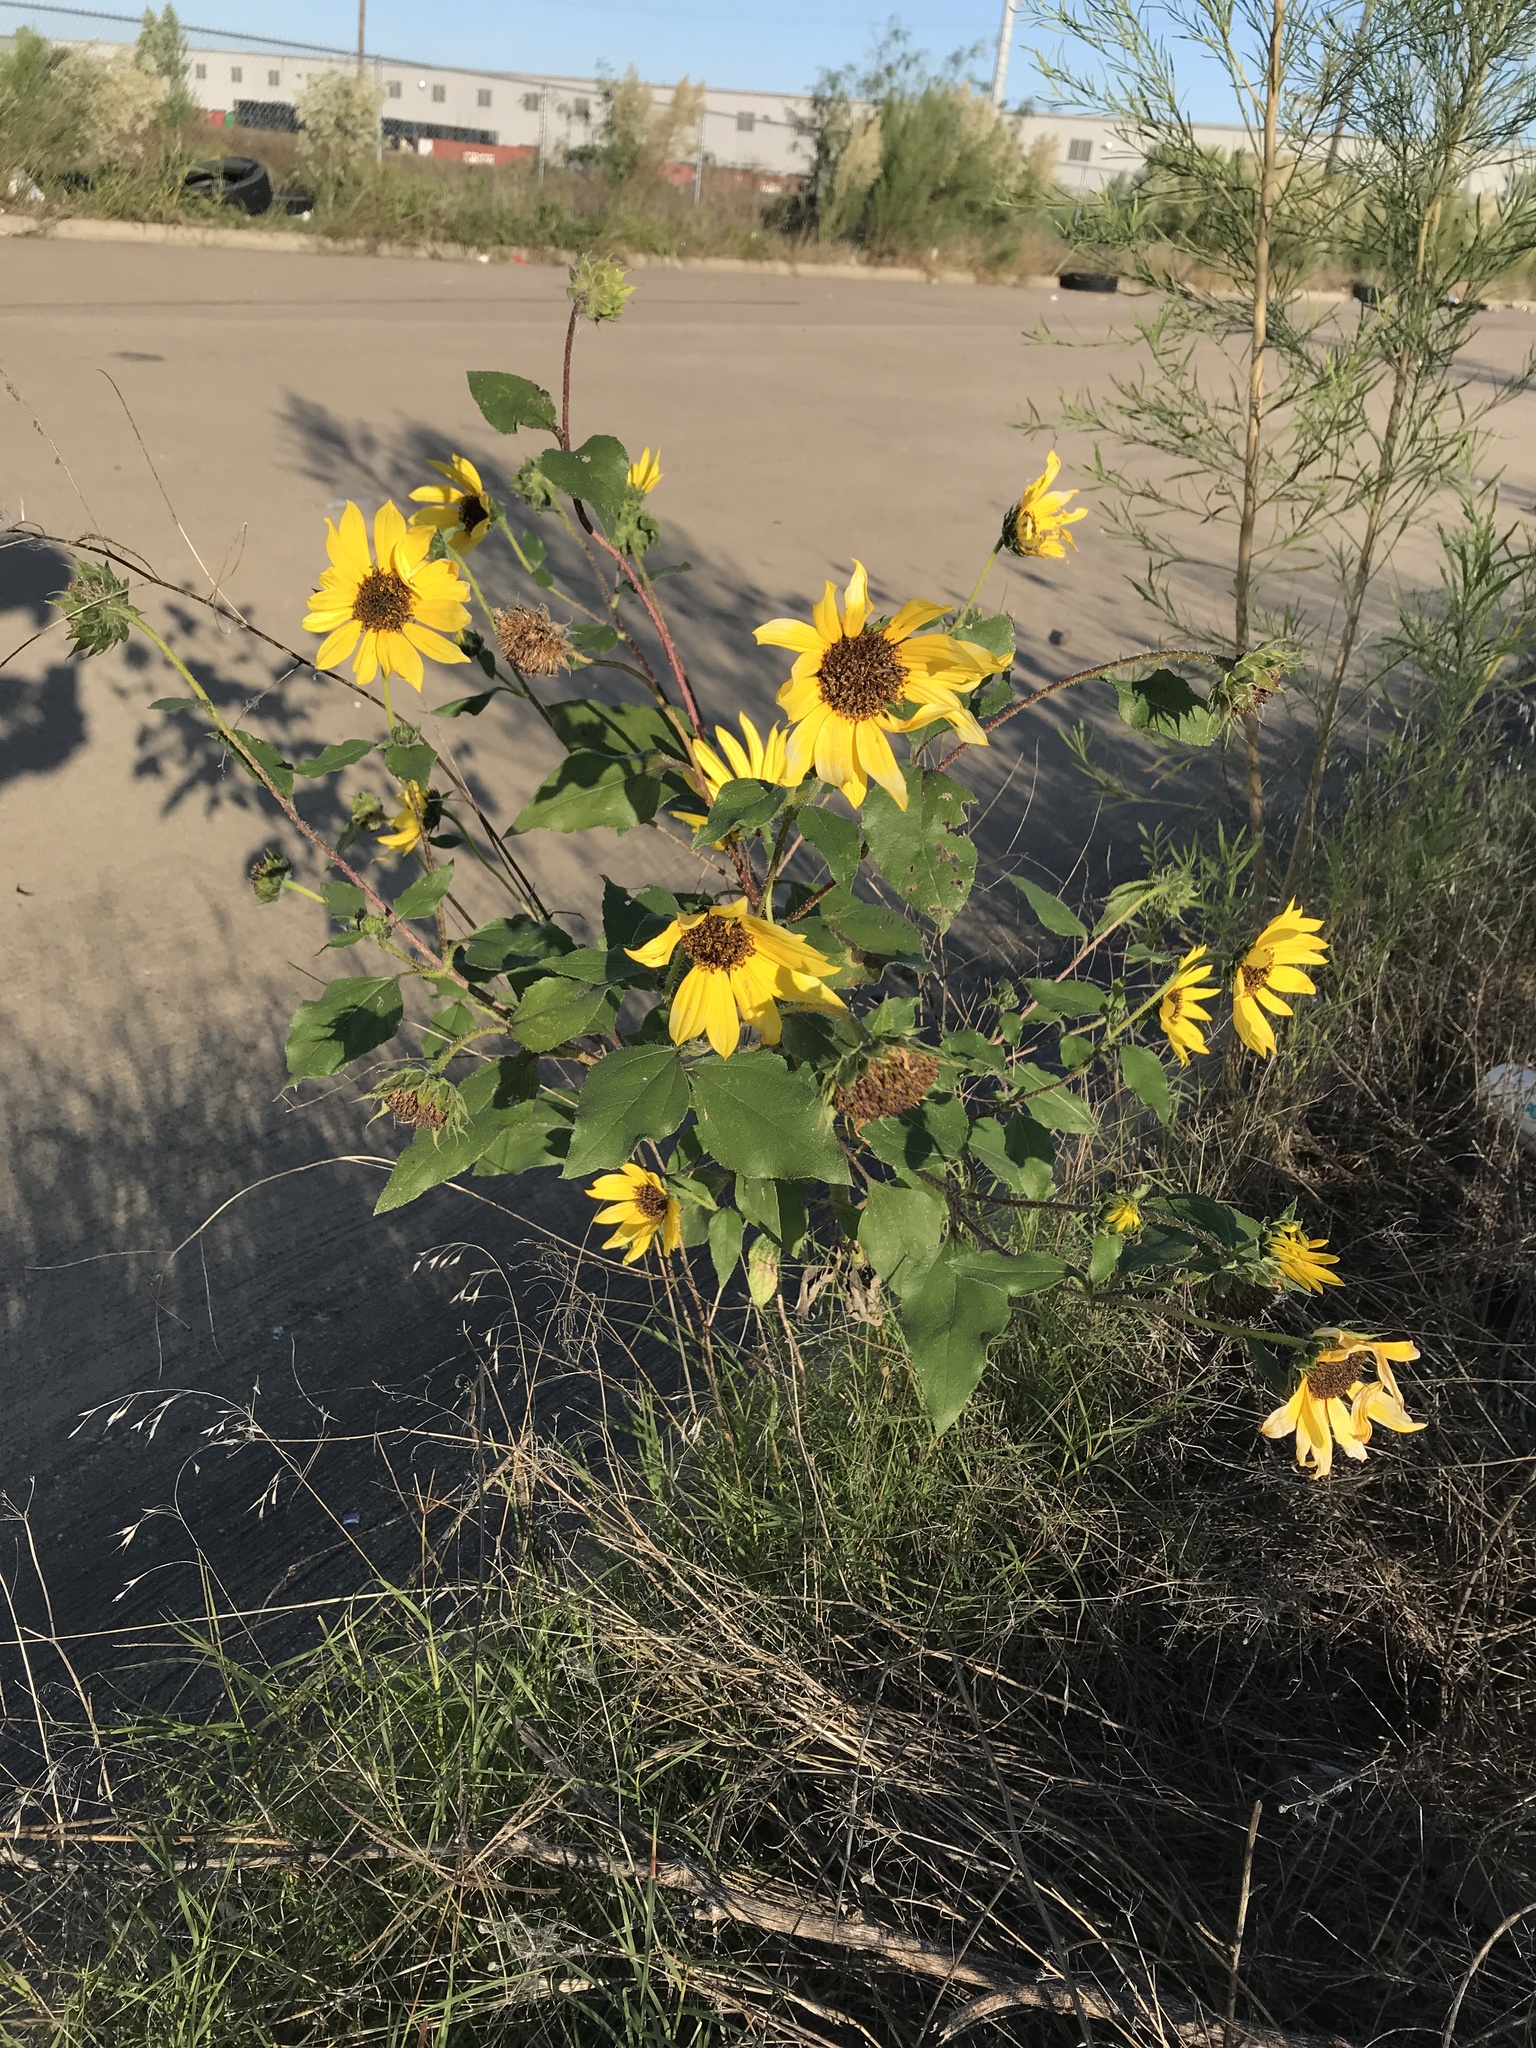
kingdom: Plantae
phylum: Tracheophyta
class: Magnoliopsida
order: Asterales
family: Asteraceae
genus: Helianthus
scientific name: Helianthus annuus
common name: Sunflower
